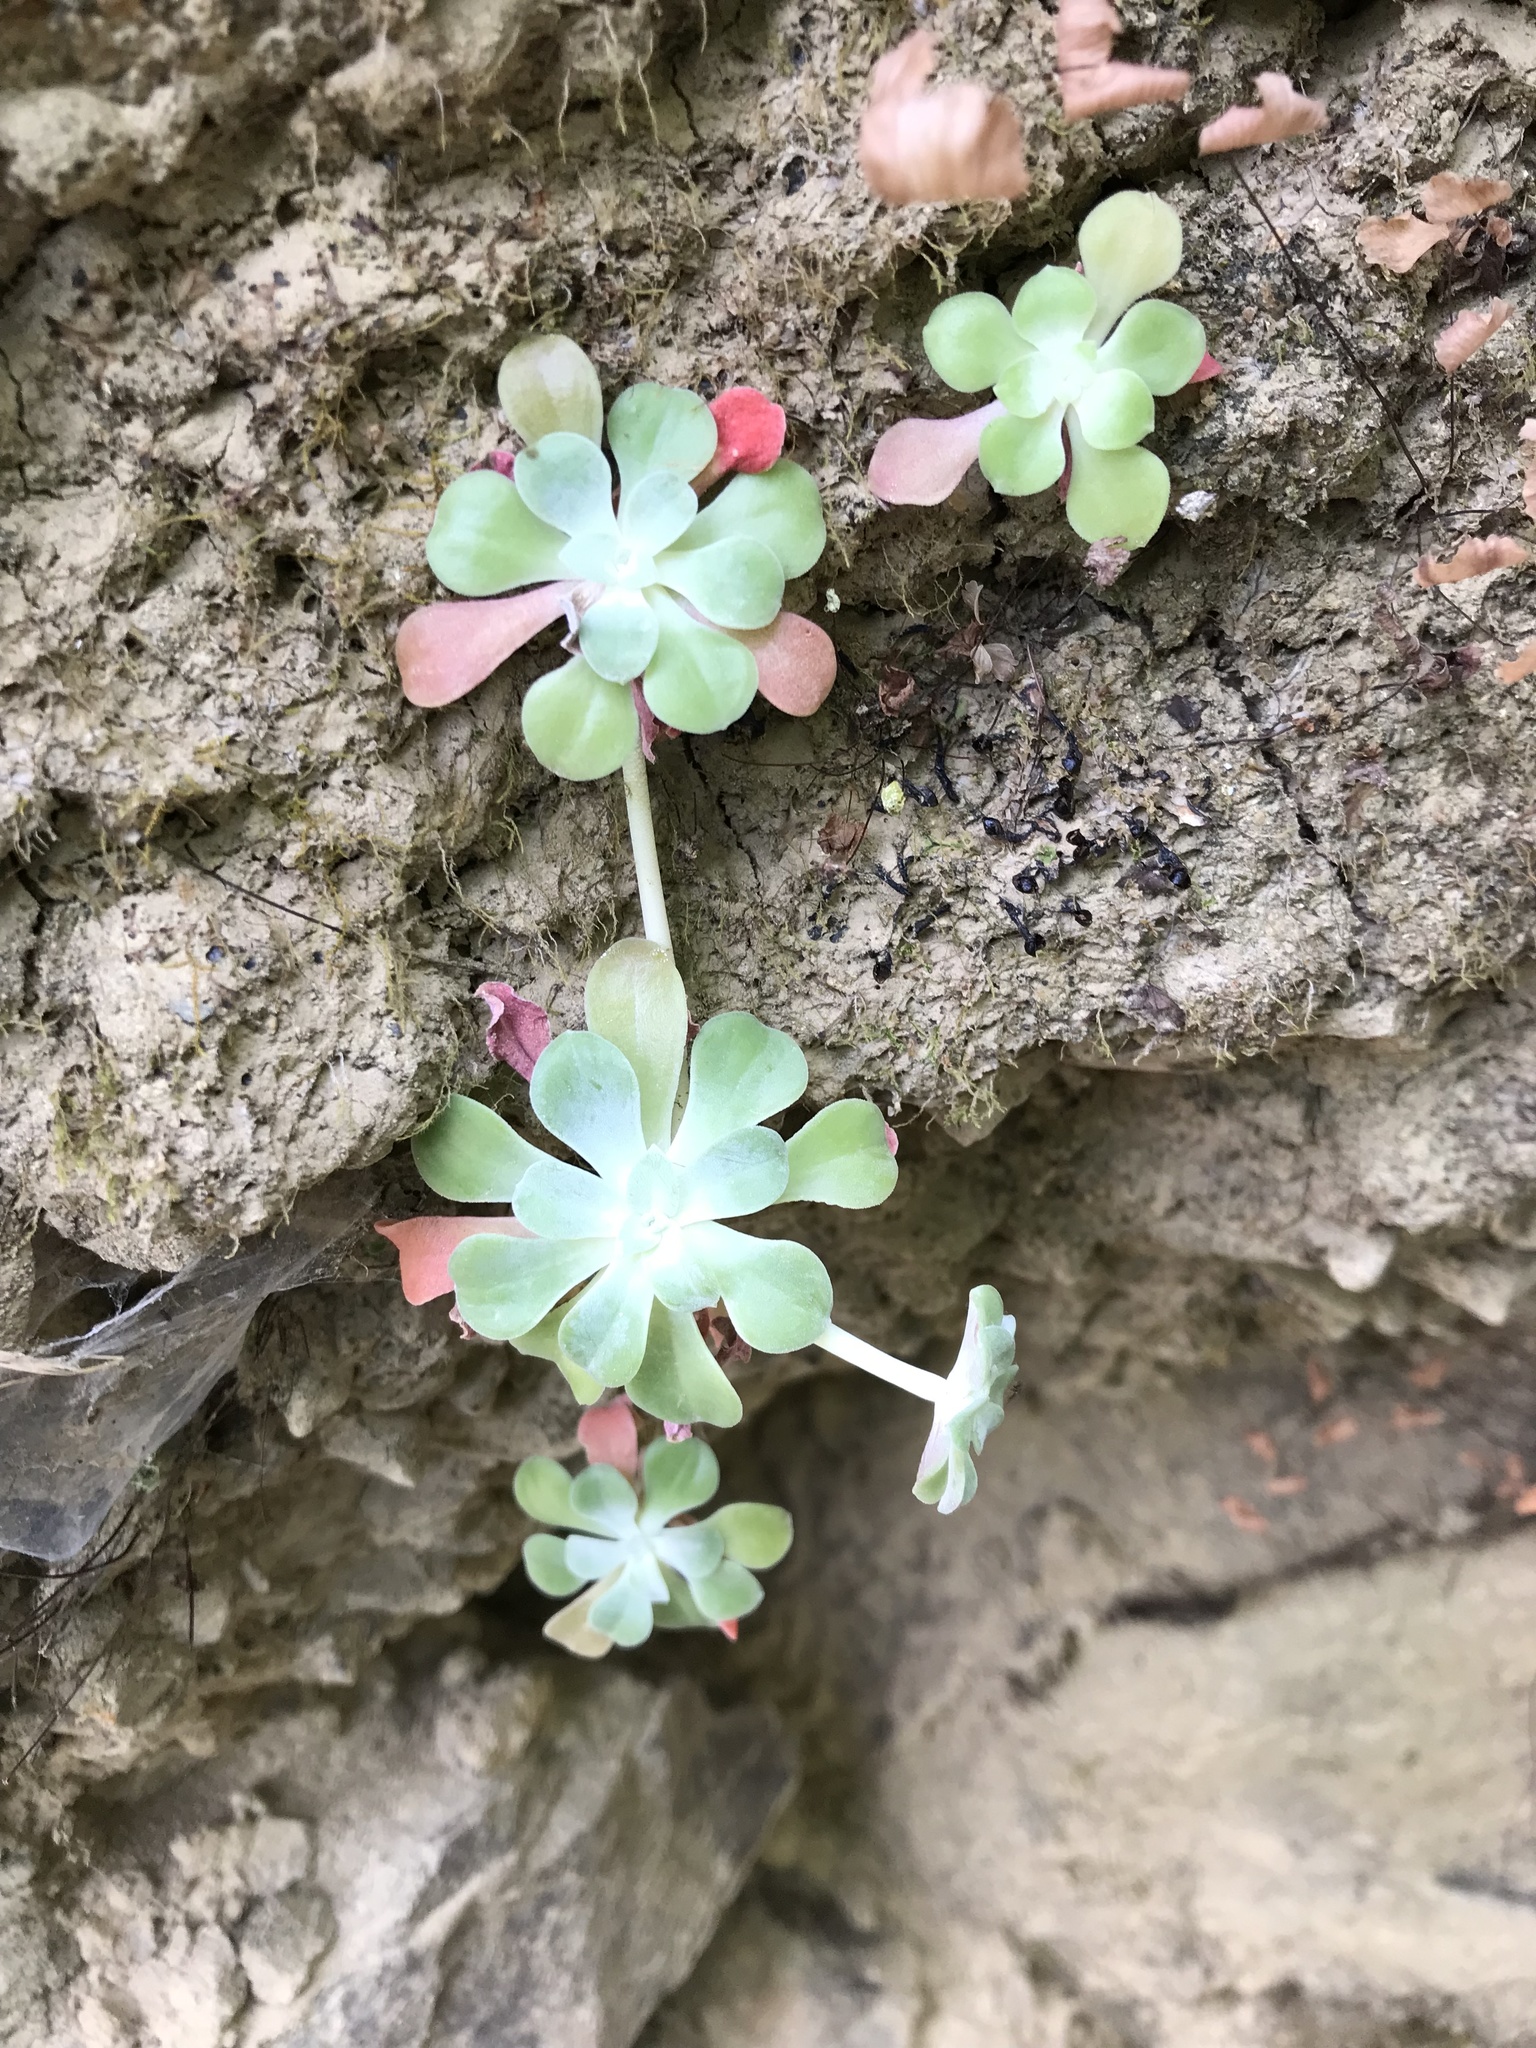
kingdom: Plantae
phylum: Tracheophyta
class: Magnoliopsida
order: Saxifragales
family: Crassulaceae
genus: Sedum
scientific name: Sedum spathulifolium
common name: Colorado stonecrop
